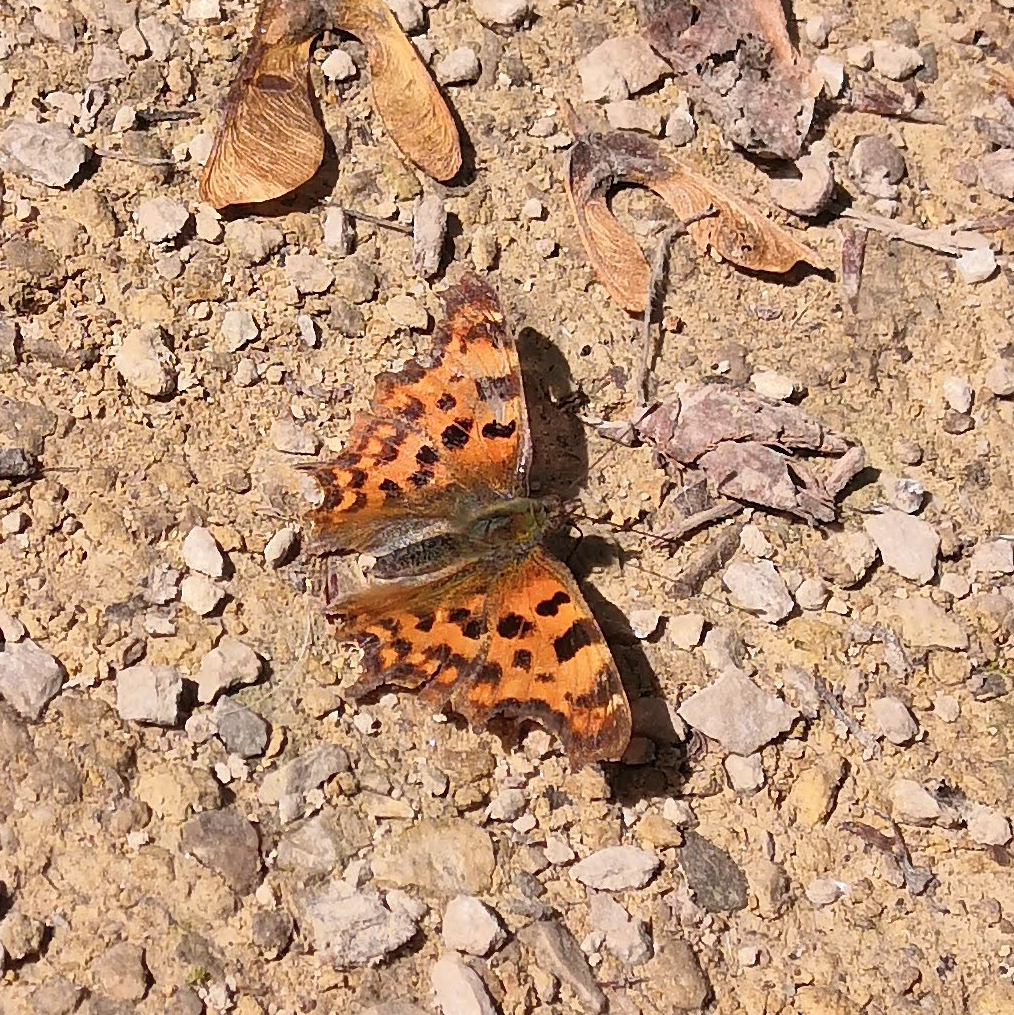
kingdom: Animalia
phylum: Arthropoda
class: Insecta
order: Lepidoptera
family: Nymphalidae
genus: Polygonia
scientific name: Polygonia c-album
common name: Comma
